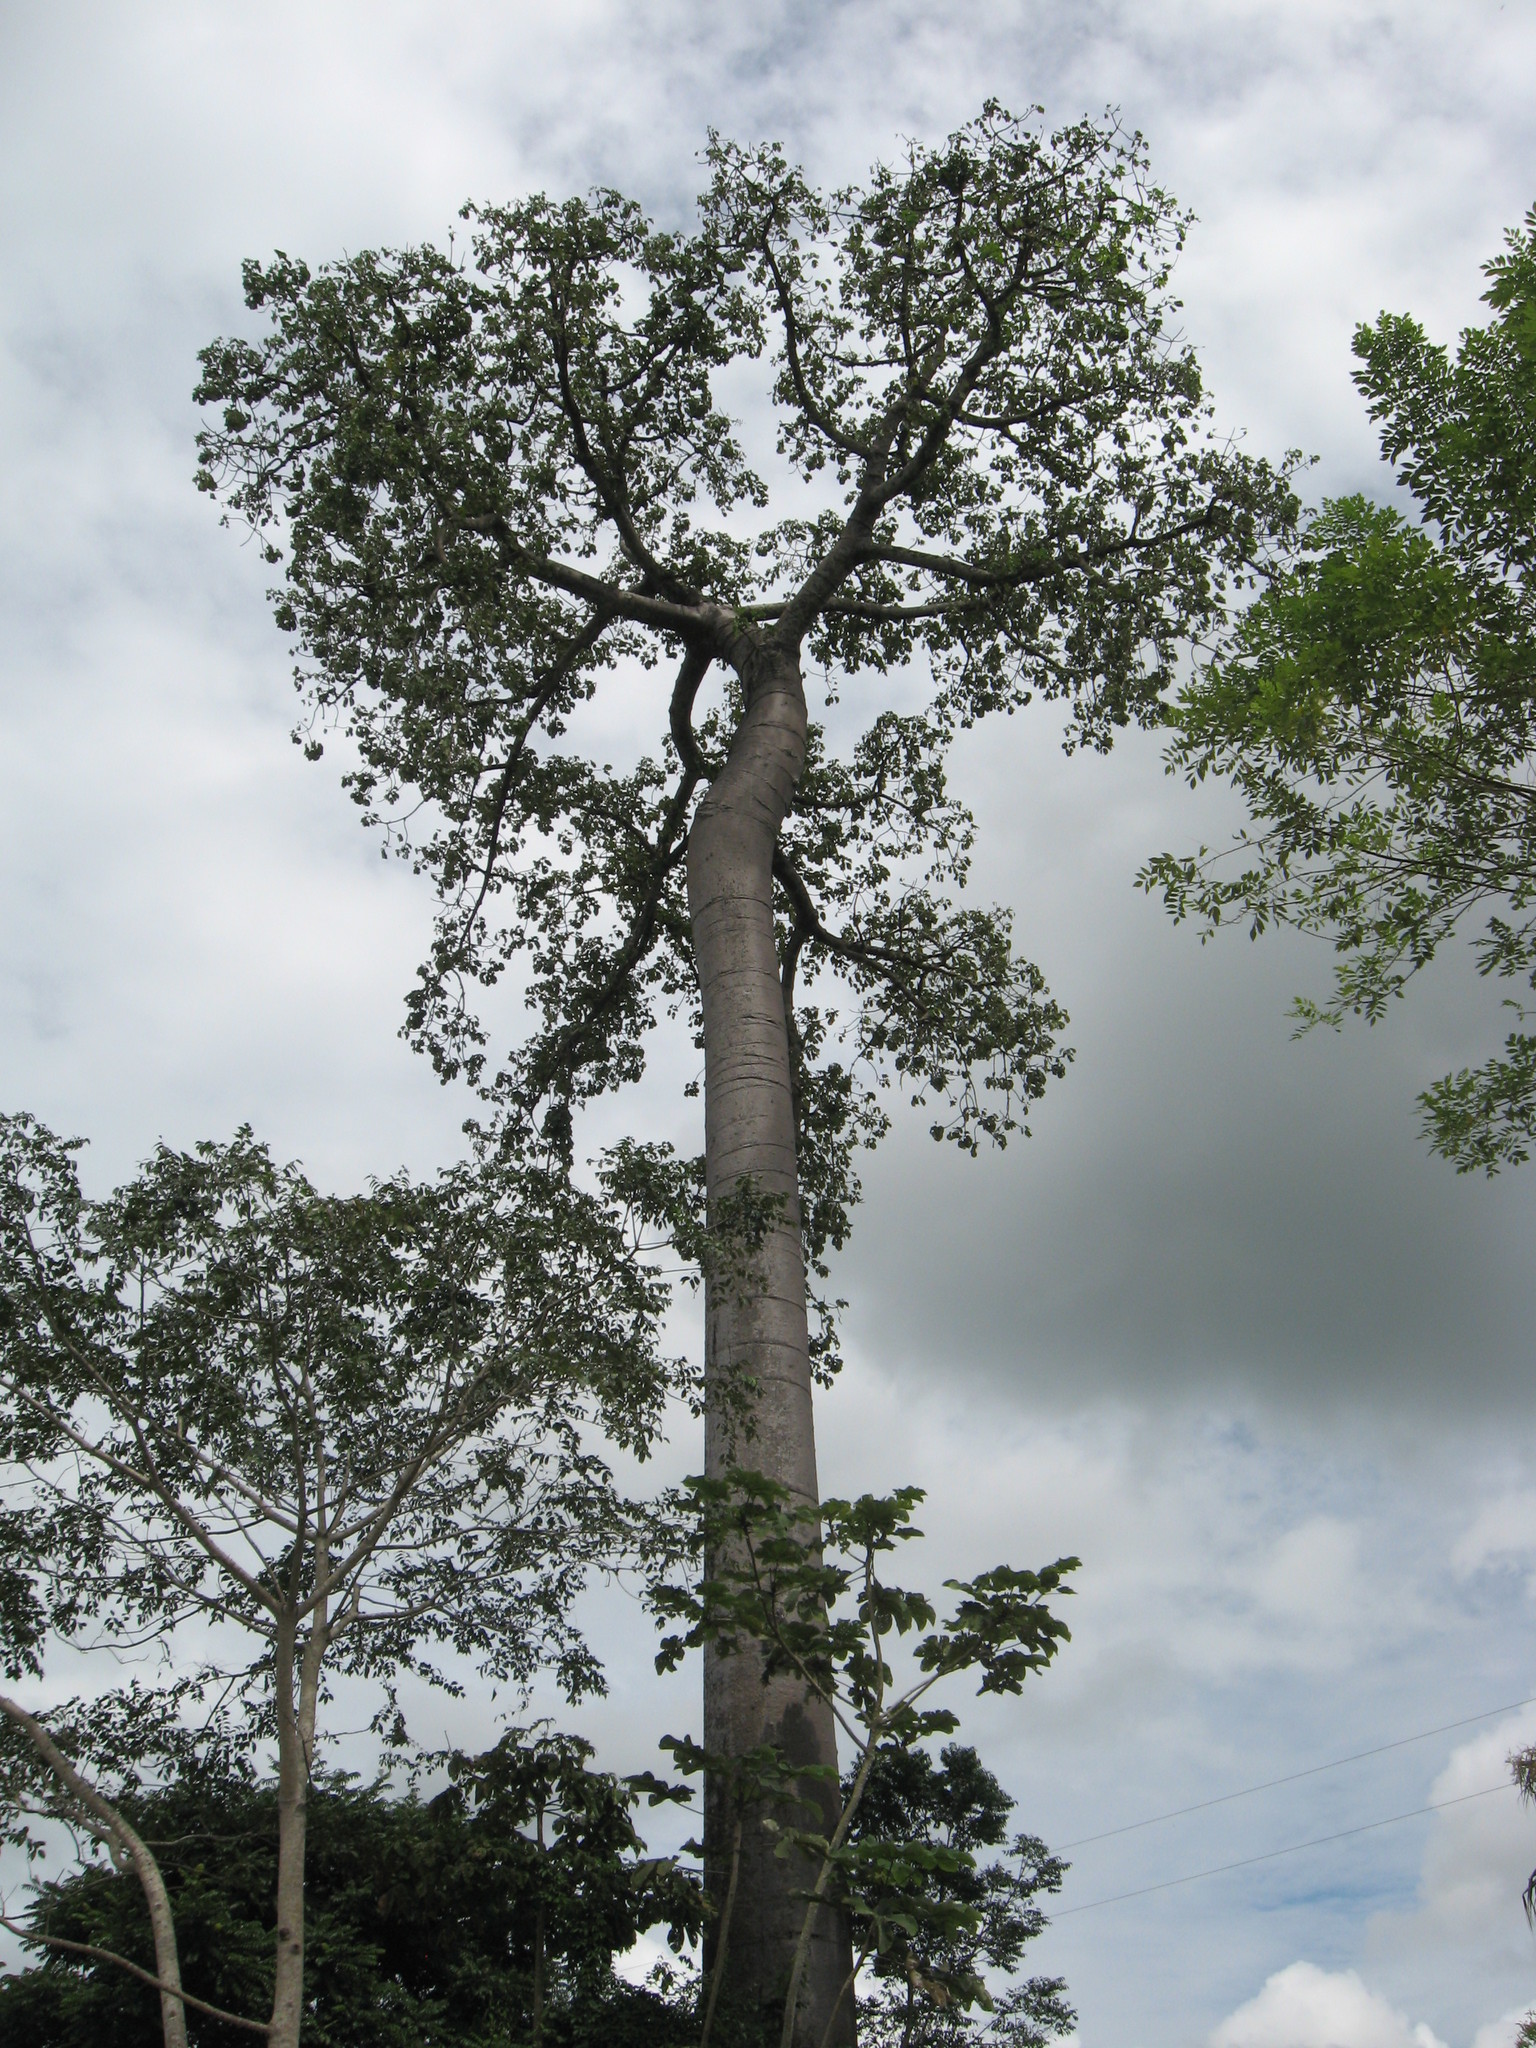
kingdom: Plantae
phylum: Tracheophyta
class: Magnoliopsida
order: Malvales
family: Malvaceae
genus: Cavanillesia
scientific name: Cavanillesia platanifolia
